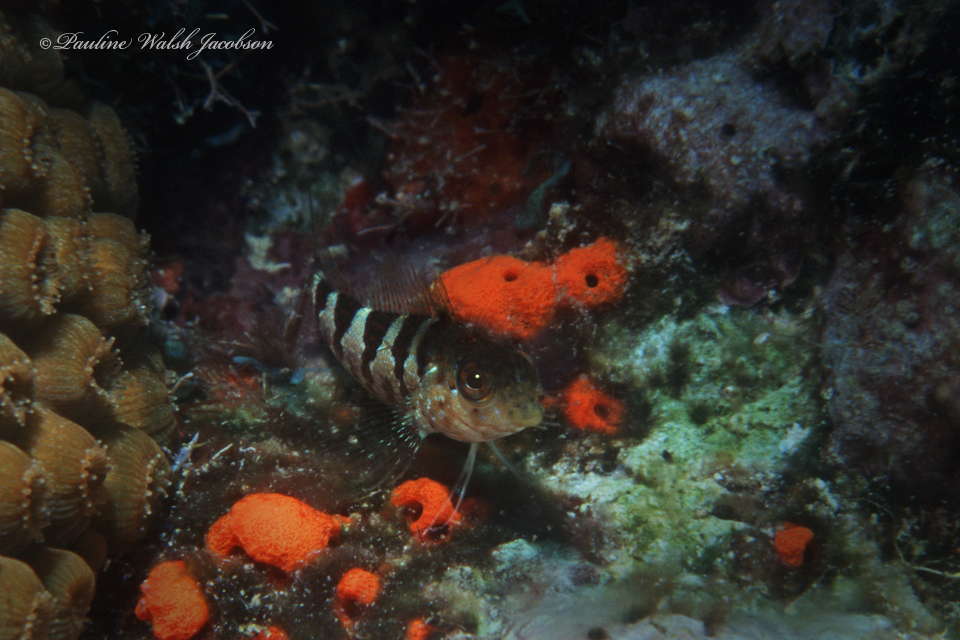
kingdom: Animalia
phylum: Chordata
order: Perciformes
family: Labrisomidae
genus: Malacoctenus
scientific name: Malacoctenus triangulatus
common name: Saddled blenny
